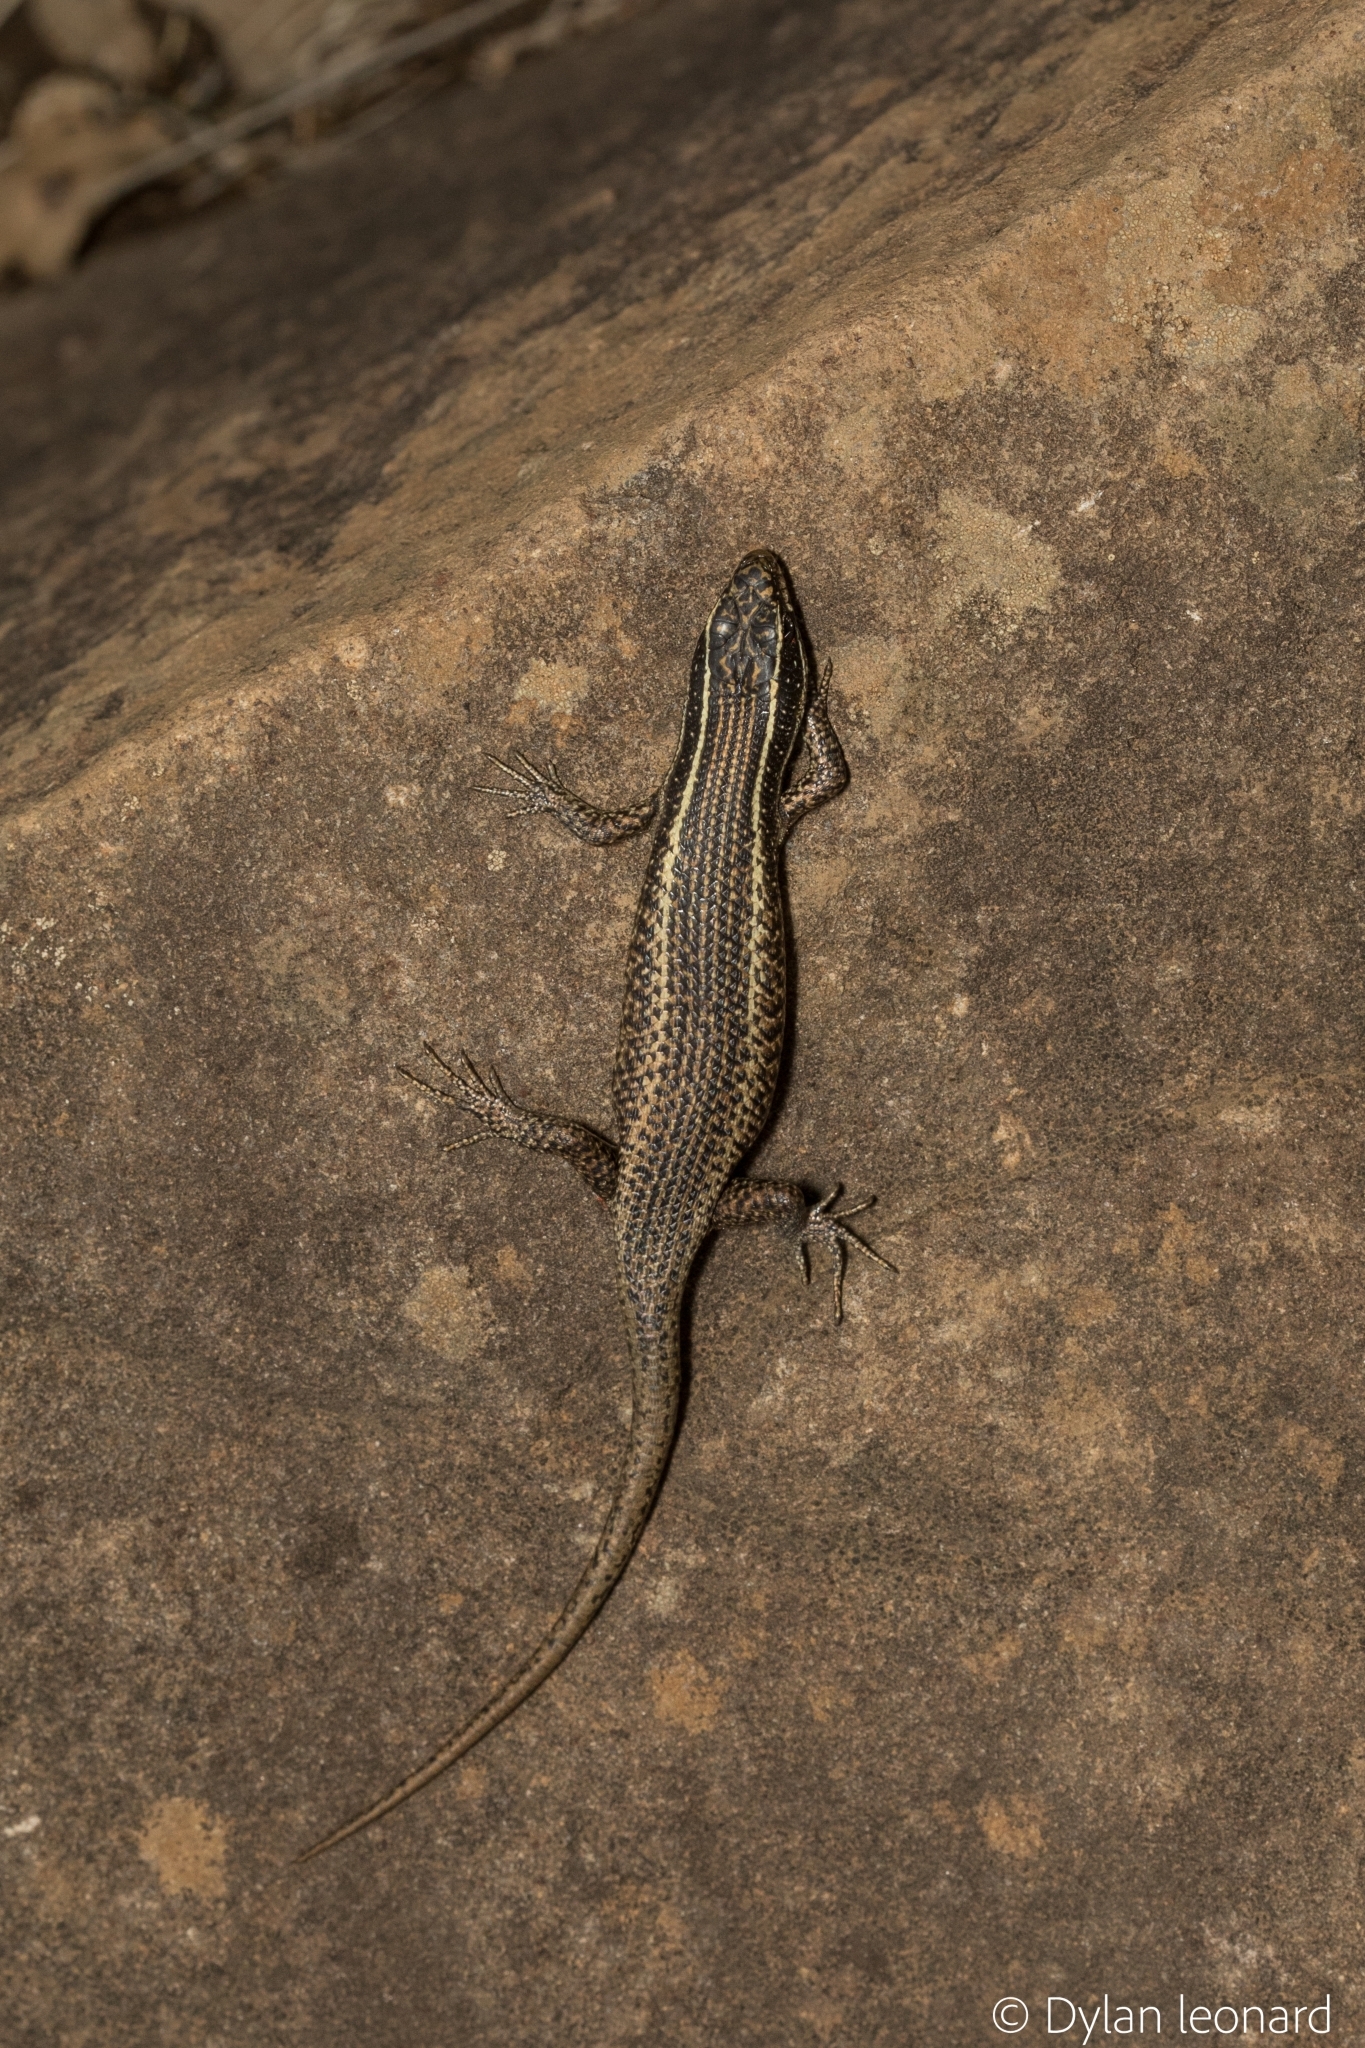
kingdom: Animalia
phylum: Chordata
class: Squamata
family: Scincidae
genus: Trachylepis
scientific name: Trachylepis punctatissima
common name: Montane speckled skink
